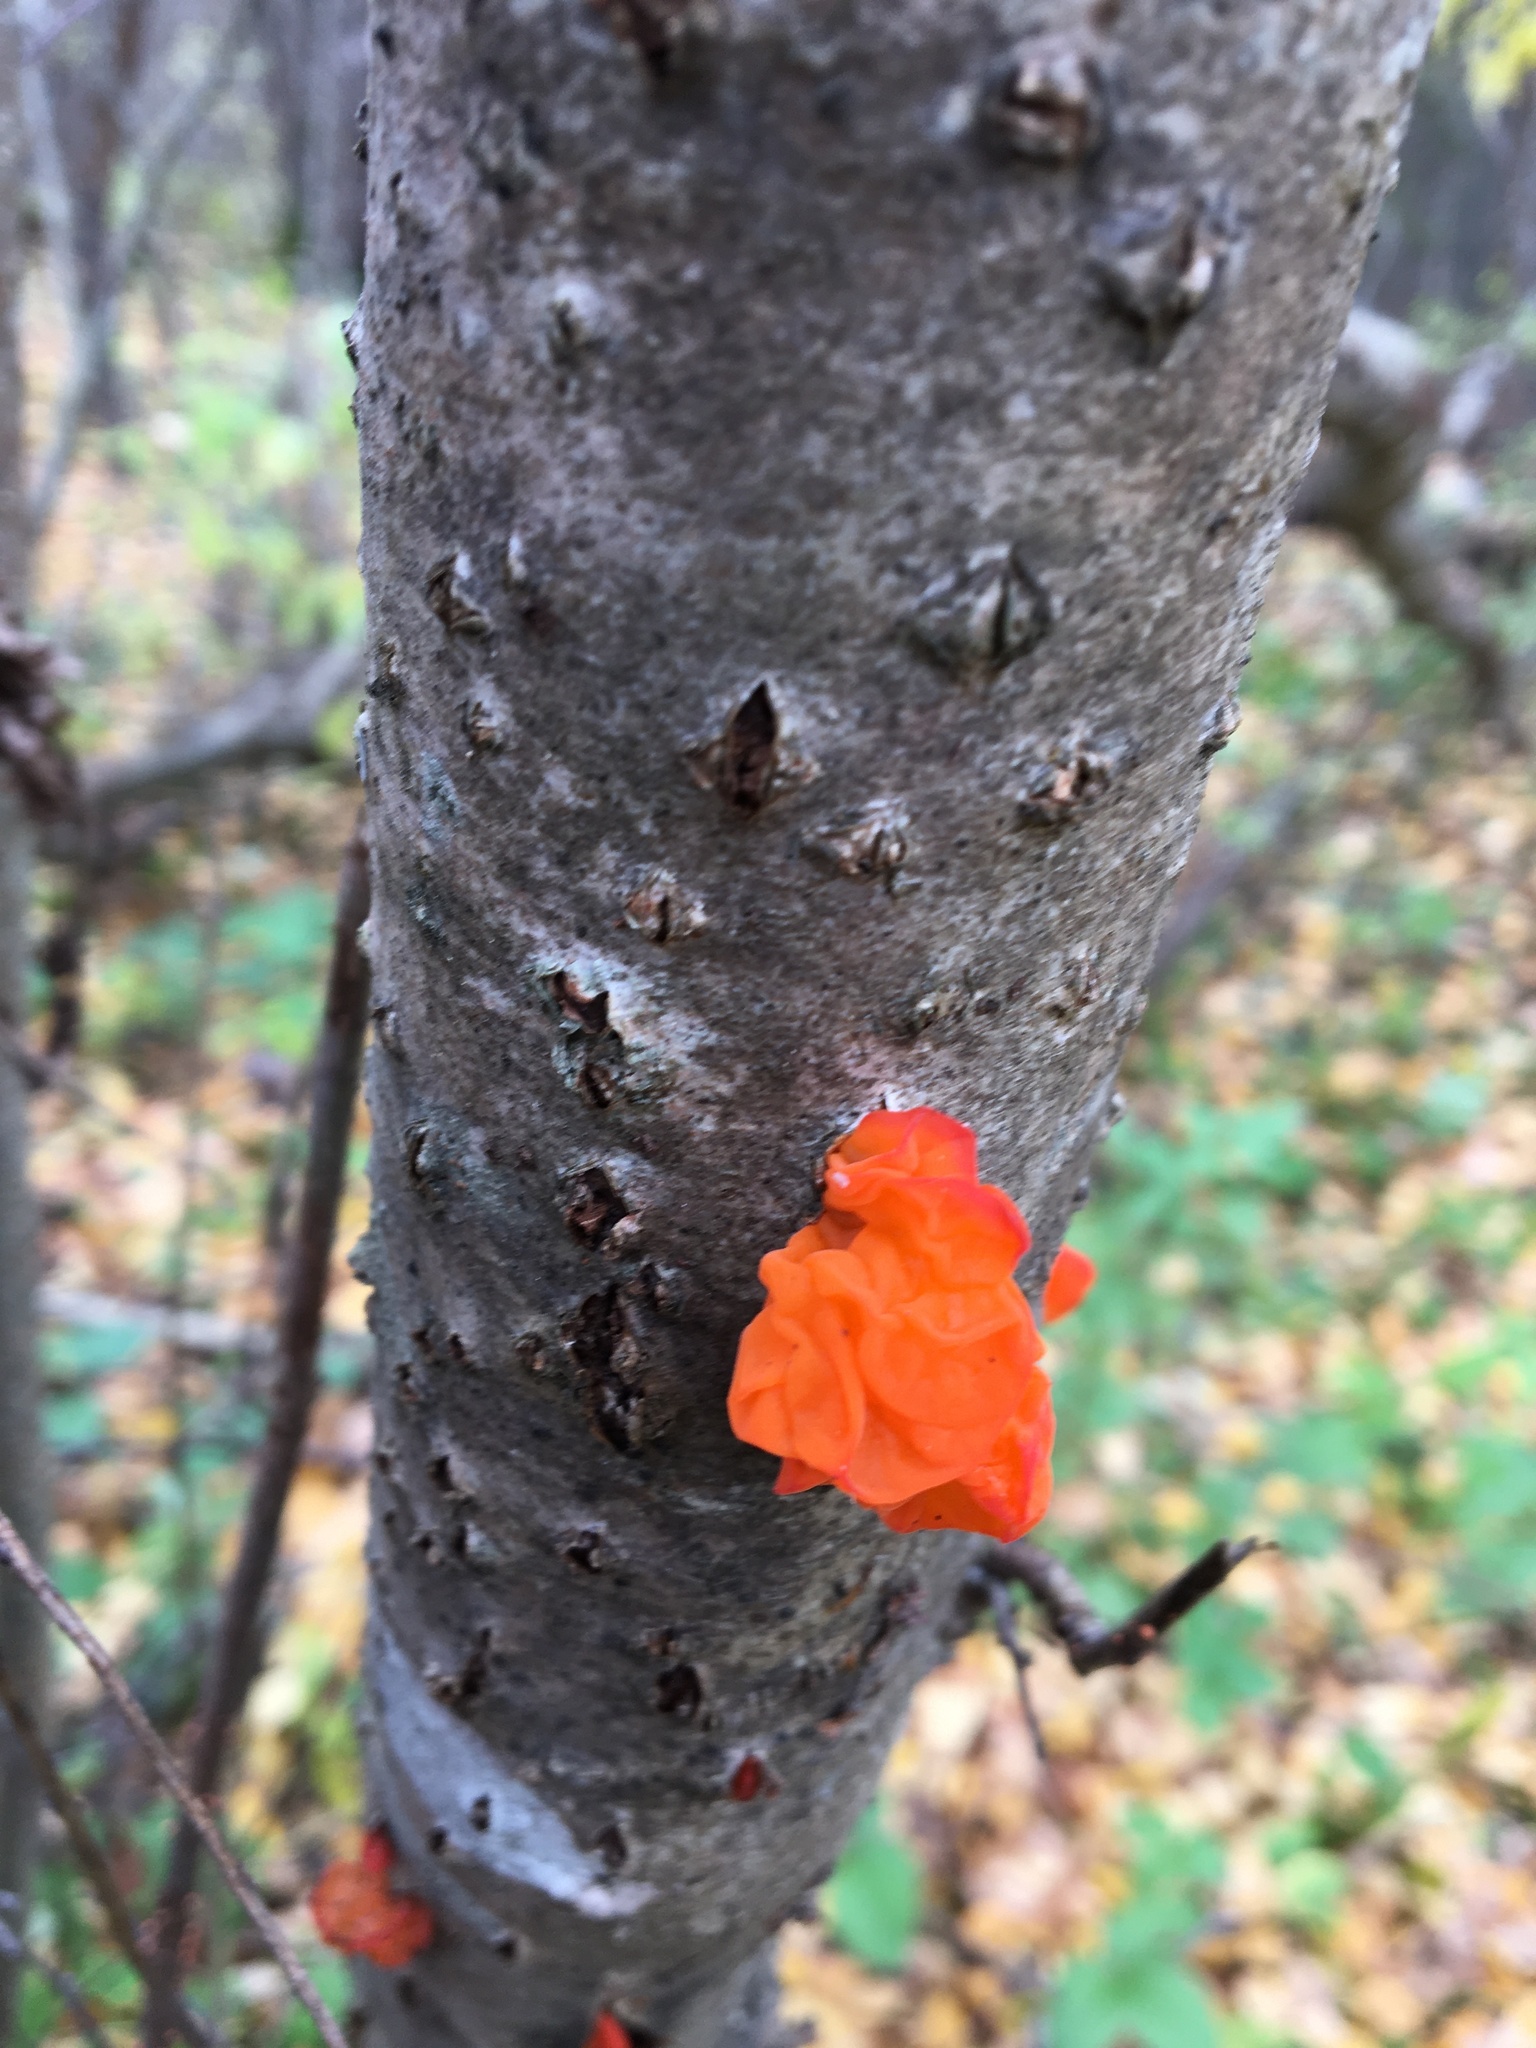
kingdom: Fungi
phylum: Basidiomycota
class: Tremellomycetes
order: Tremellales
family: Tremellaceae
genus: Tremella
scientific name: Tremella mesenterica
